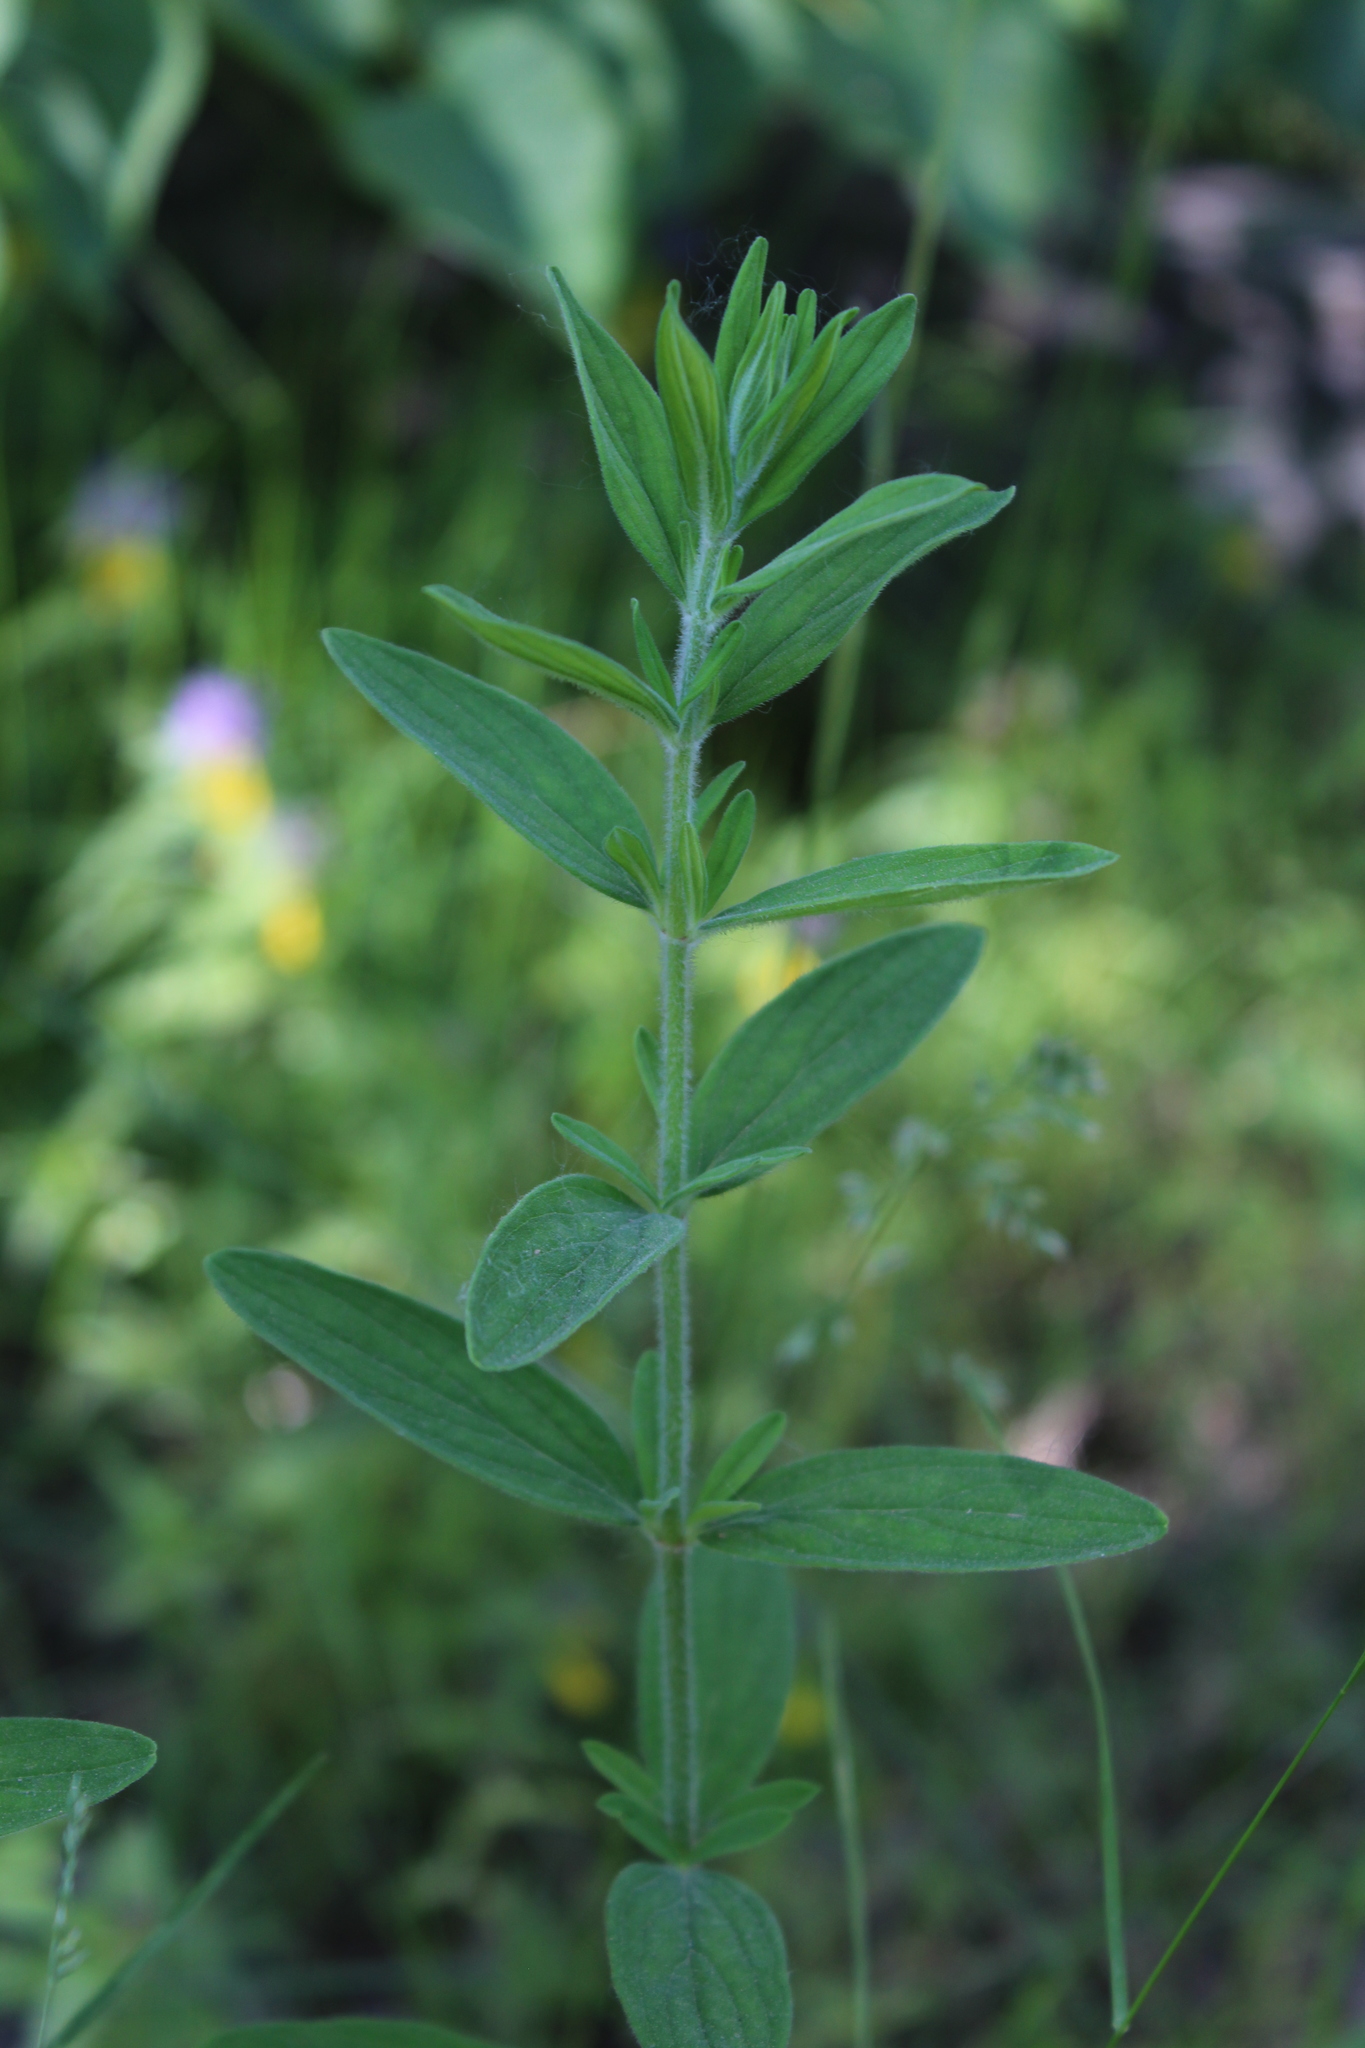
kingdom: Plantae
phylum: Tracheophyta
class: Magnoliopsida
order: Malpighiales
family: Hypericaceae
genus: Hypericum
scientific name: Hypericum hirsutum
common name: Hairy st. john's-wort
